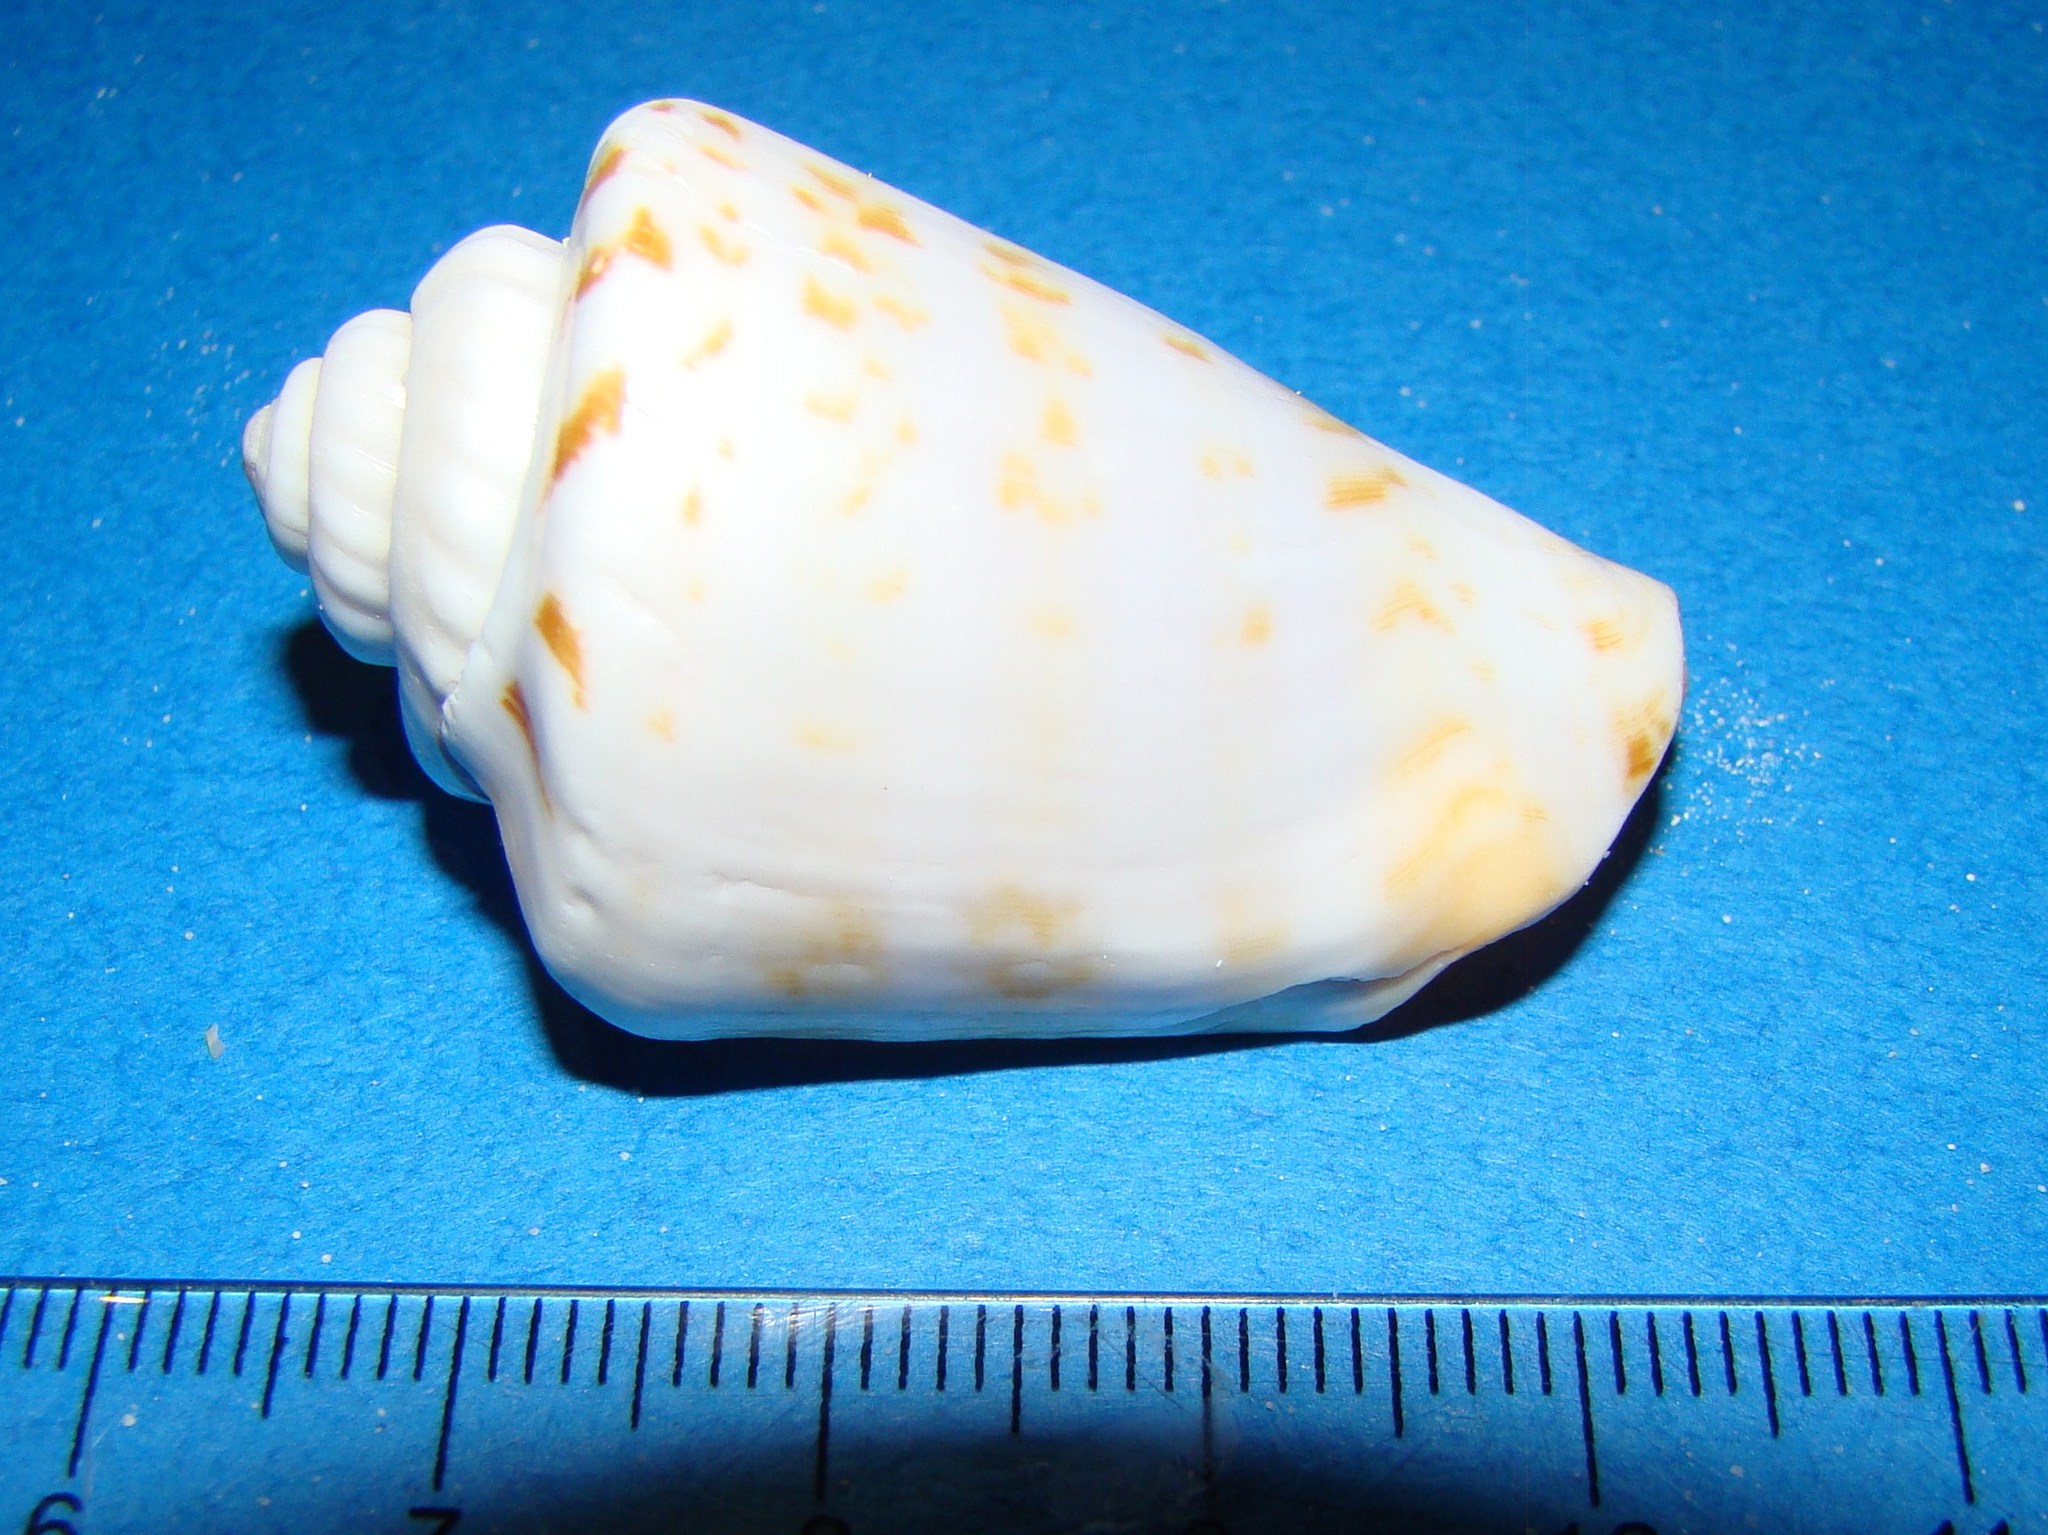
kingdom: Animalia
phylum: Mollusca
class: Gastropoda
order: Littorinimorpha
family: Strombidae
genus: Conomurex
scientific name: Conomurex luhuanus
